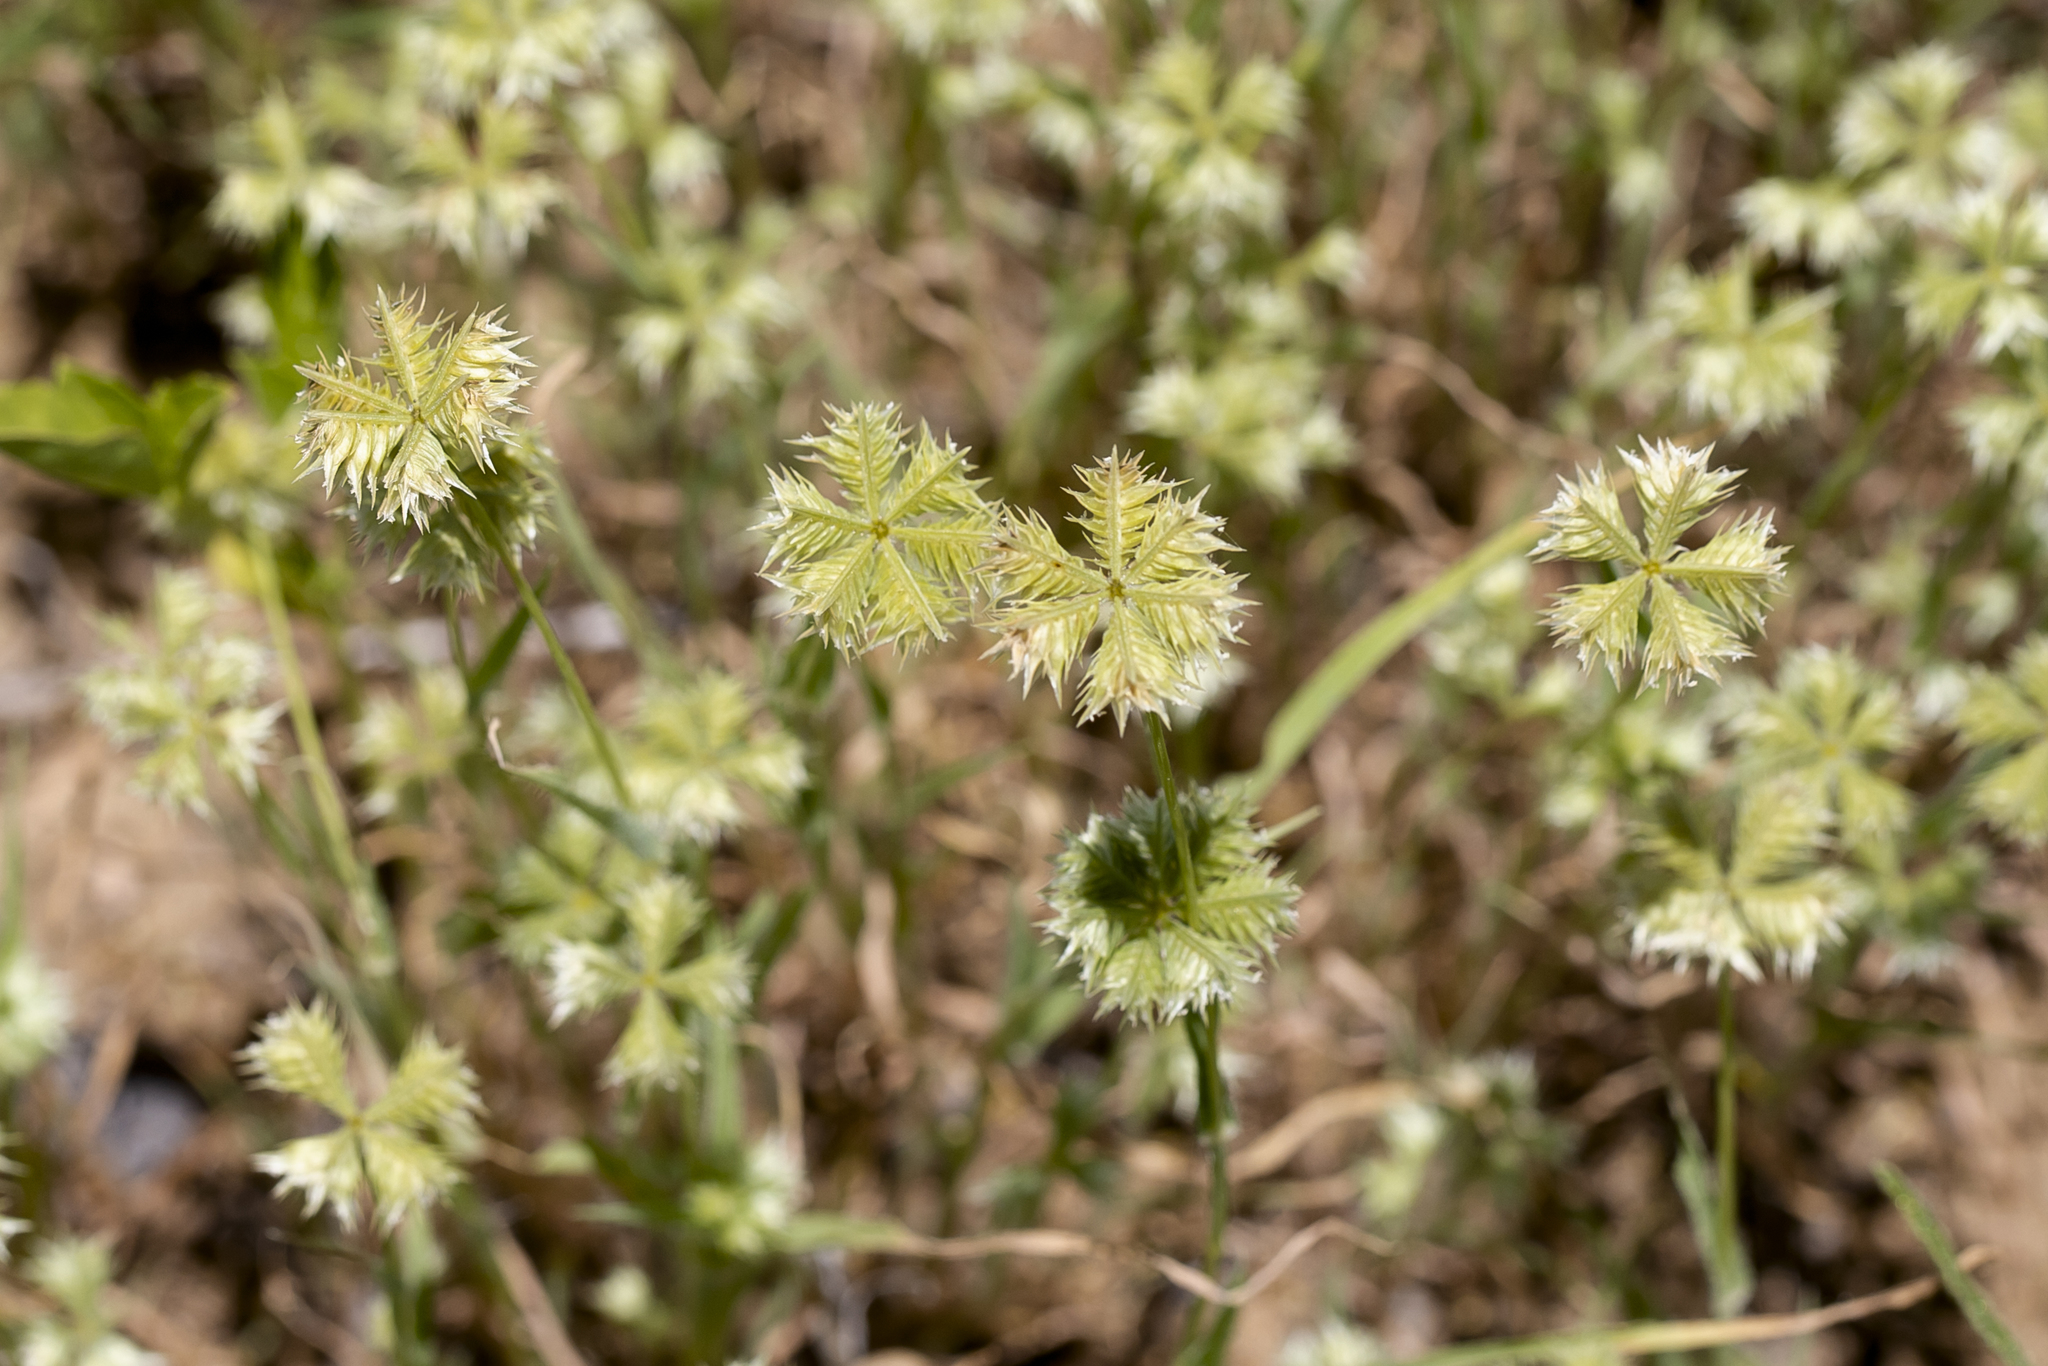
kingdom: Plantae
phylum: Tracheophyta
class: Liliopsida
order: Poales
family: Poaceae
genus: Dactyloctenium
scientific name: Dactyloctenium radulans
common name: Button-grass
